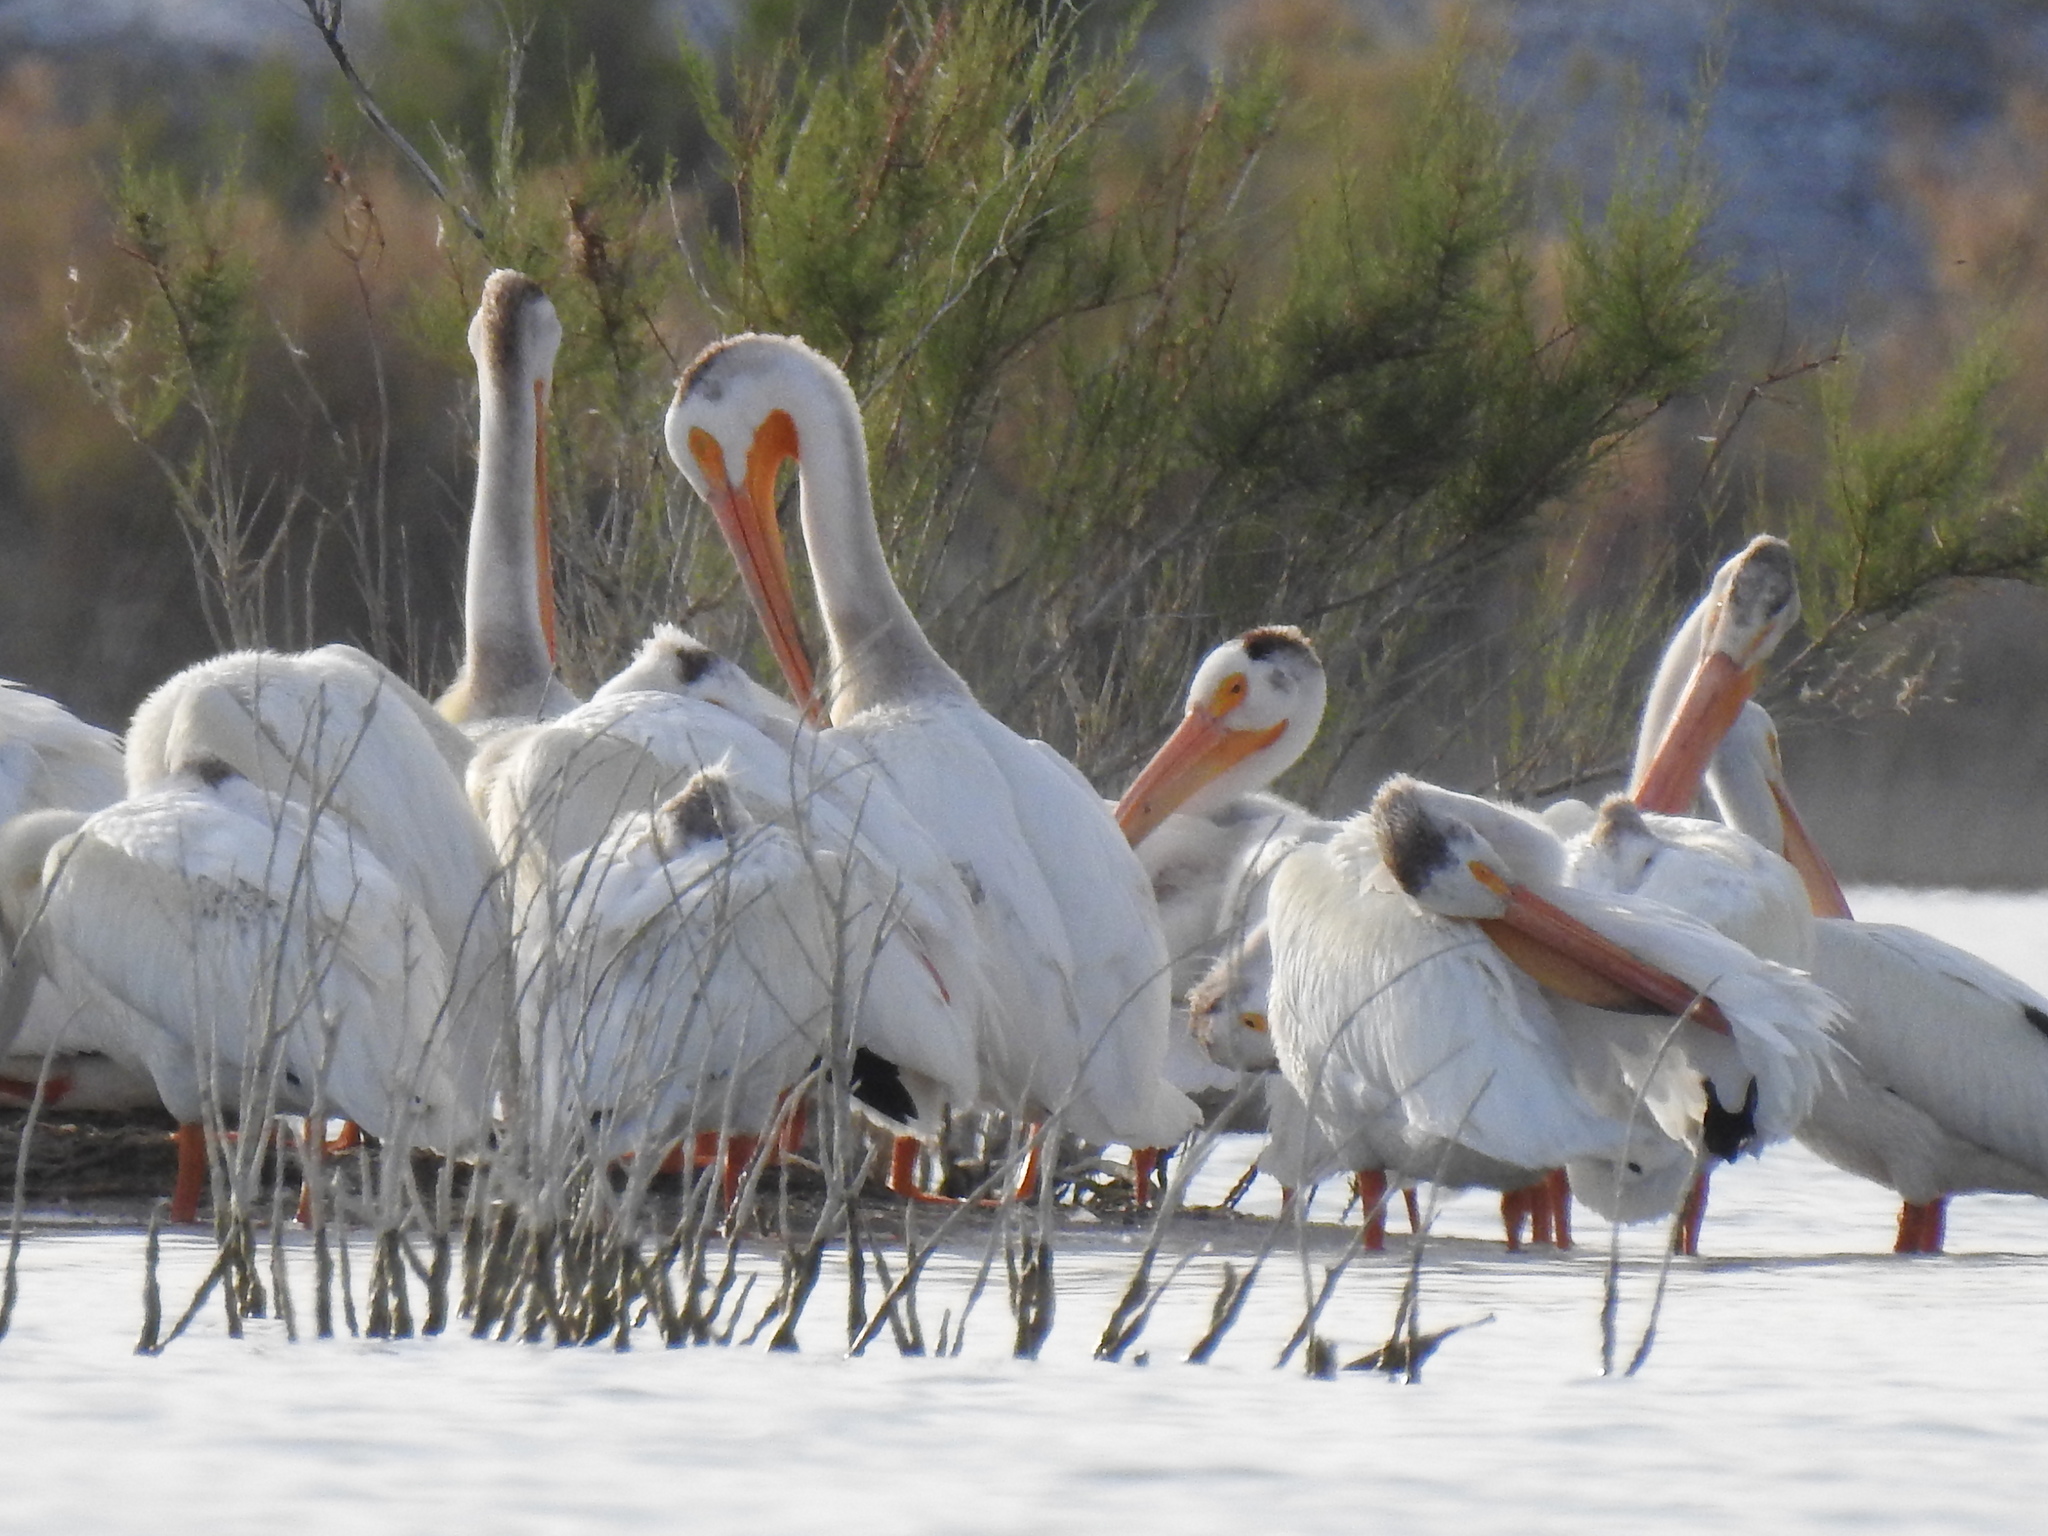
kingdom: Animalia
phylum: Chordata
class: Aves
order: Pelecaniformes
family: Pelecanidae
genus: Pelecanus
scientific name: Pelecanus erythrorhynchos
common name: American white pelican
